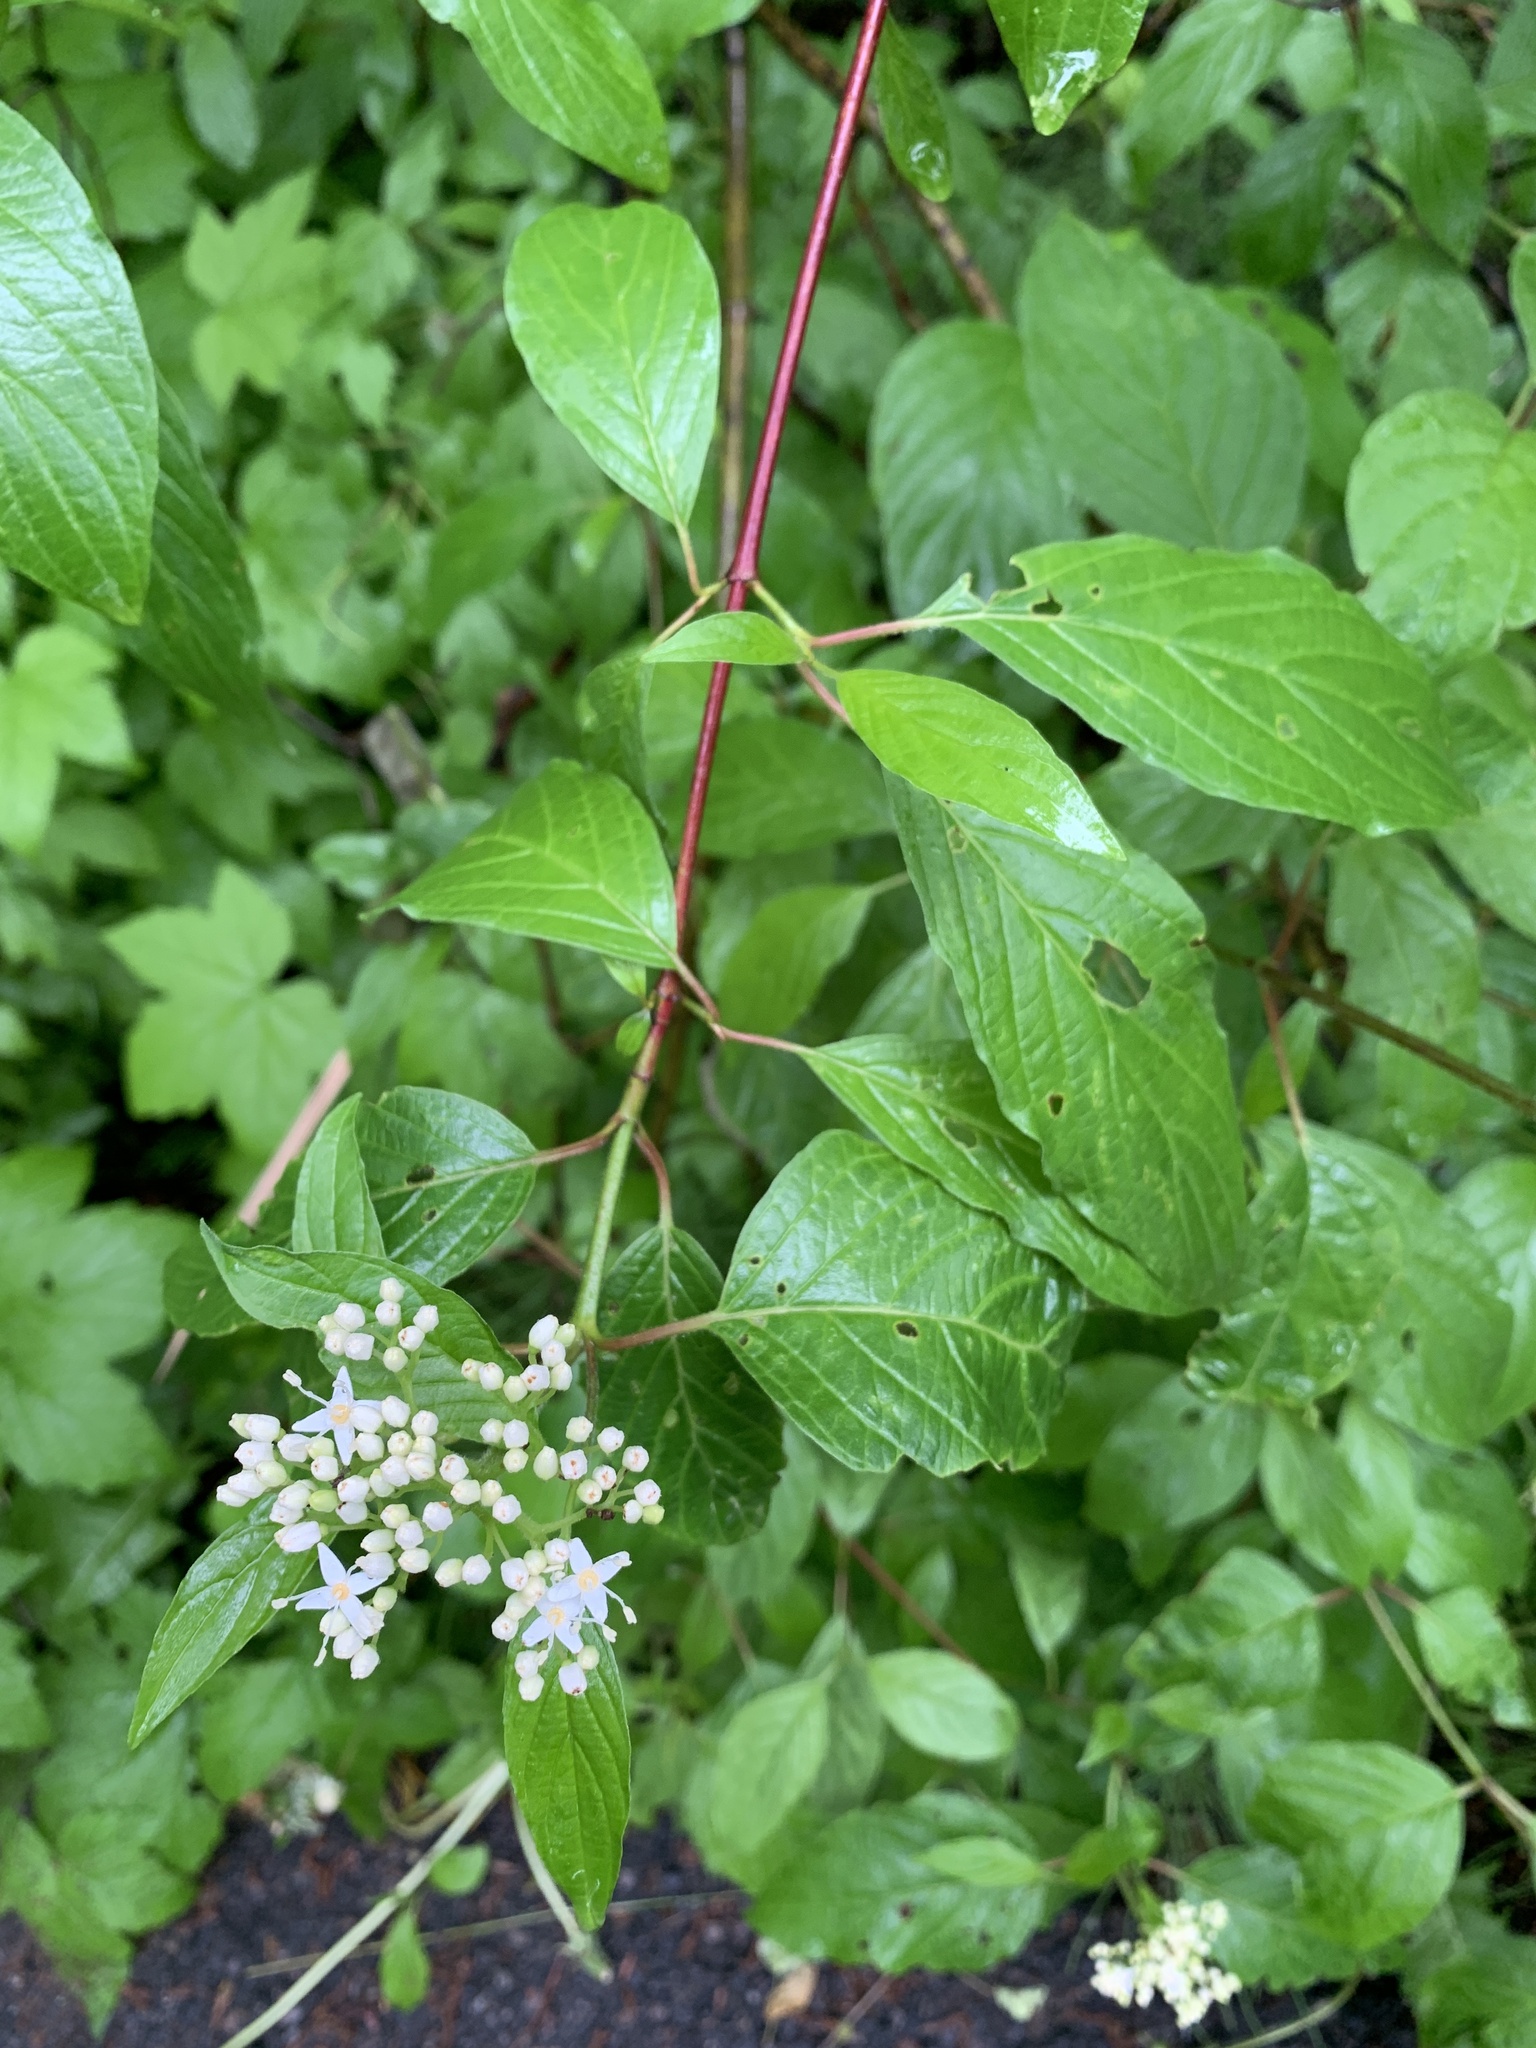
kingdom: Plantae
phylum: Tracheophyta
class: Magnoliopsida
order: Cornales
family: Cornaceae
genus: Cornus
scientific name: Cornus sericea
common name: Red-osier dogwood
